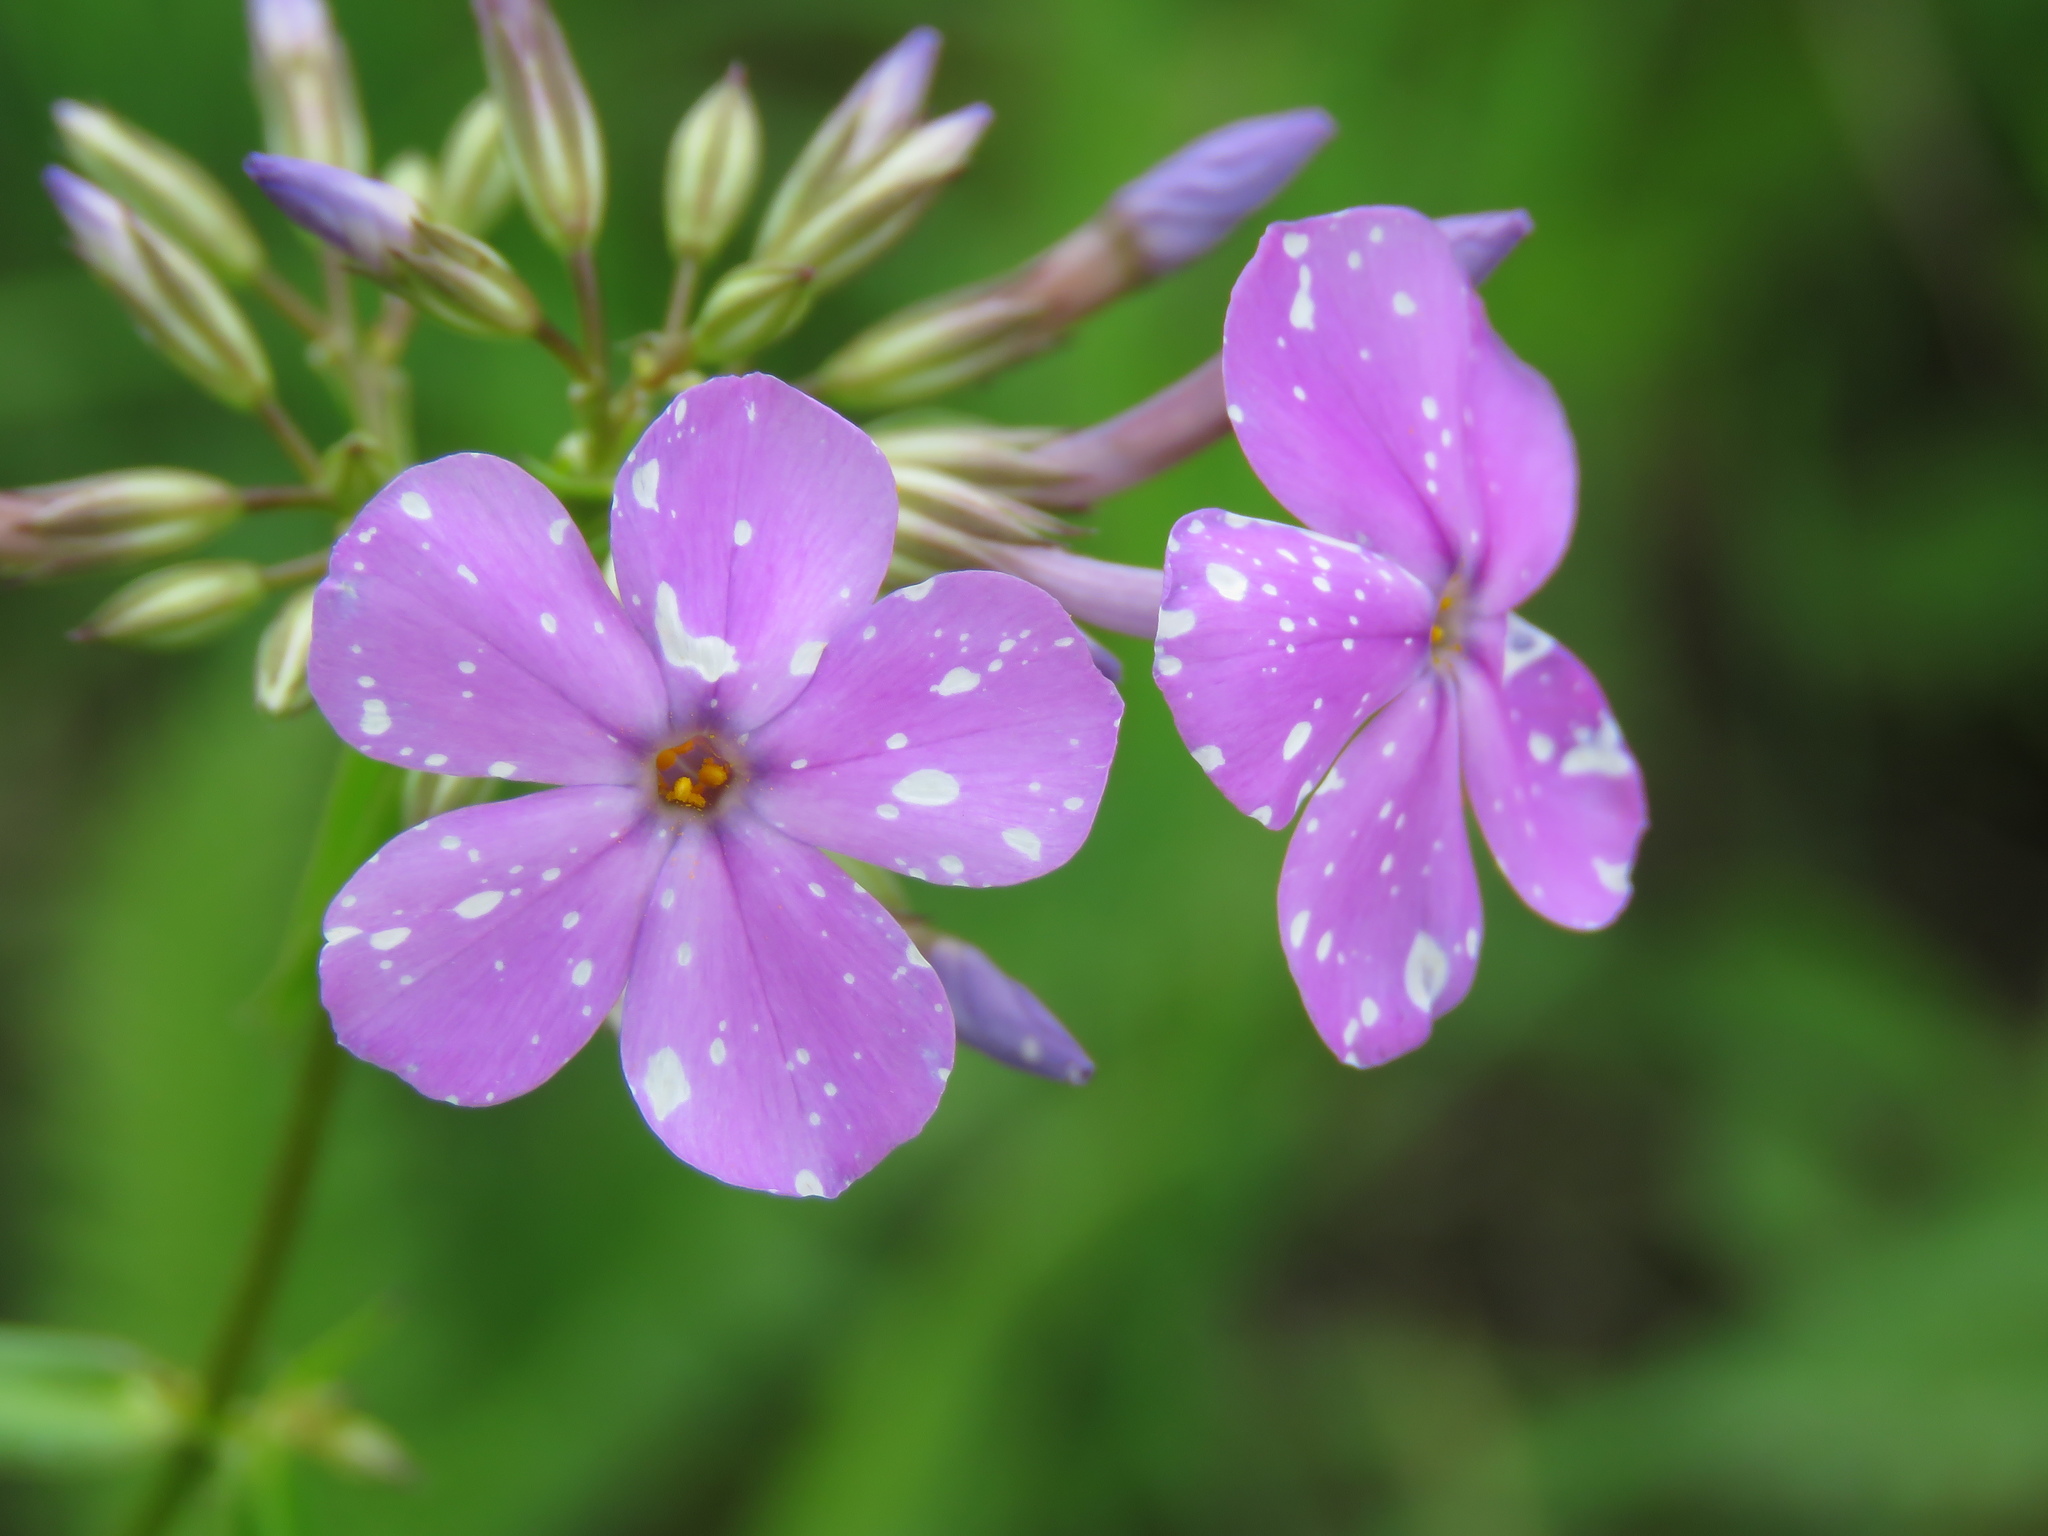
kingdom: Plantae
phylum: Tracheophyta
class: Magnoliopsida
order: Ericales
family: Polemoniaceae
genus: Phlox
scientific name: Phlox glaberrima
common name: Smooth phlox
